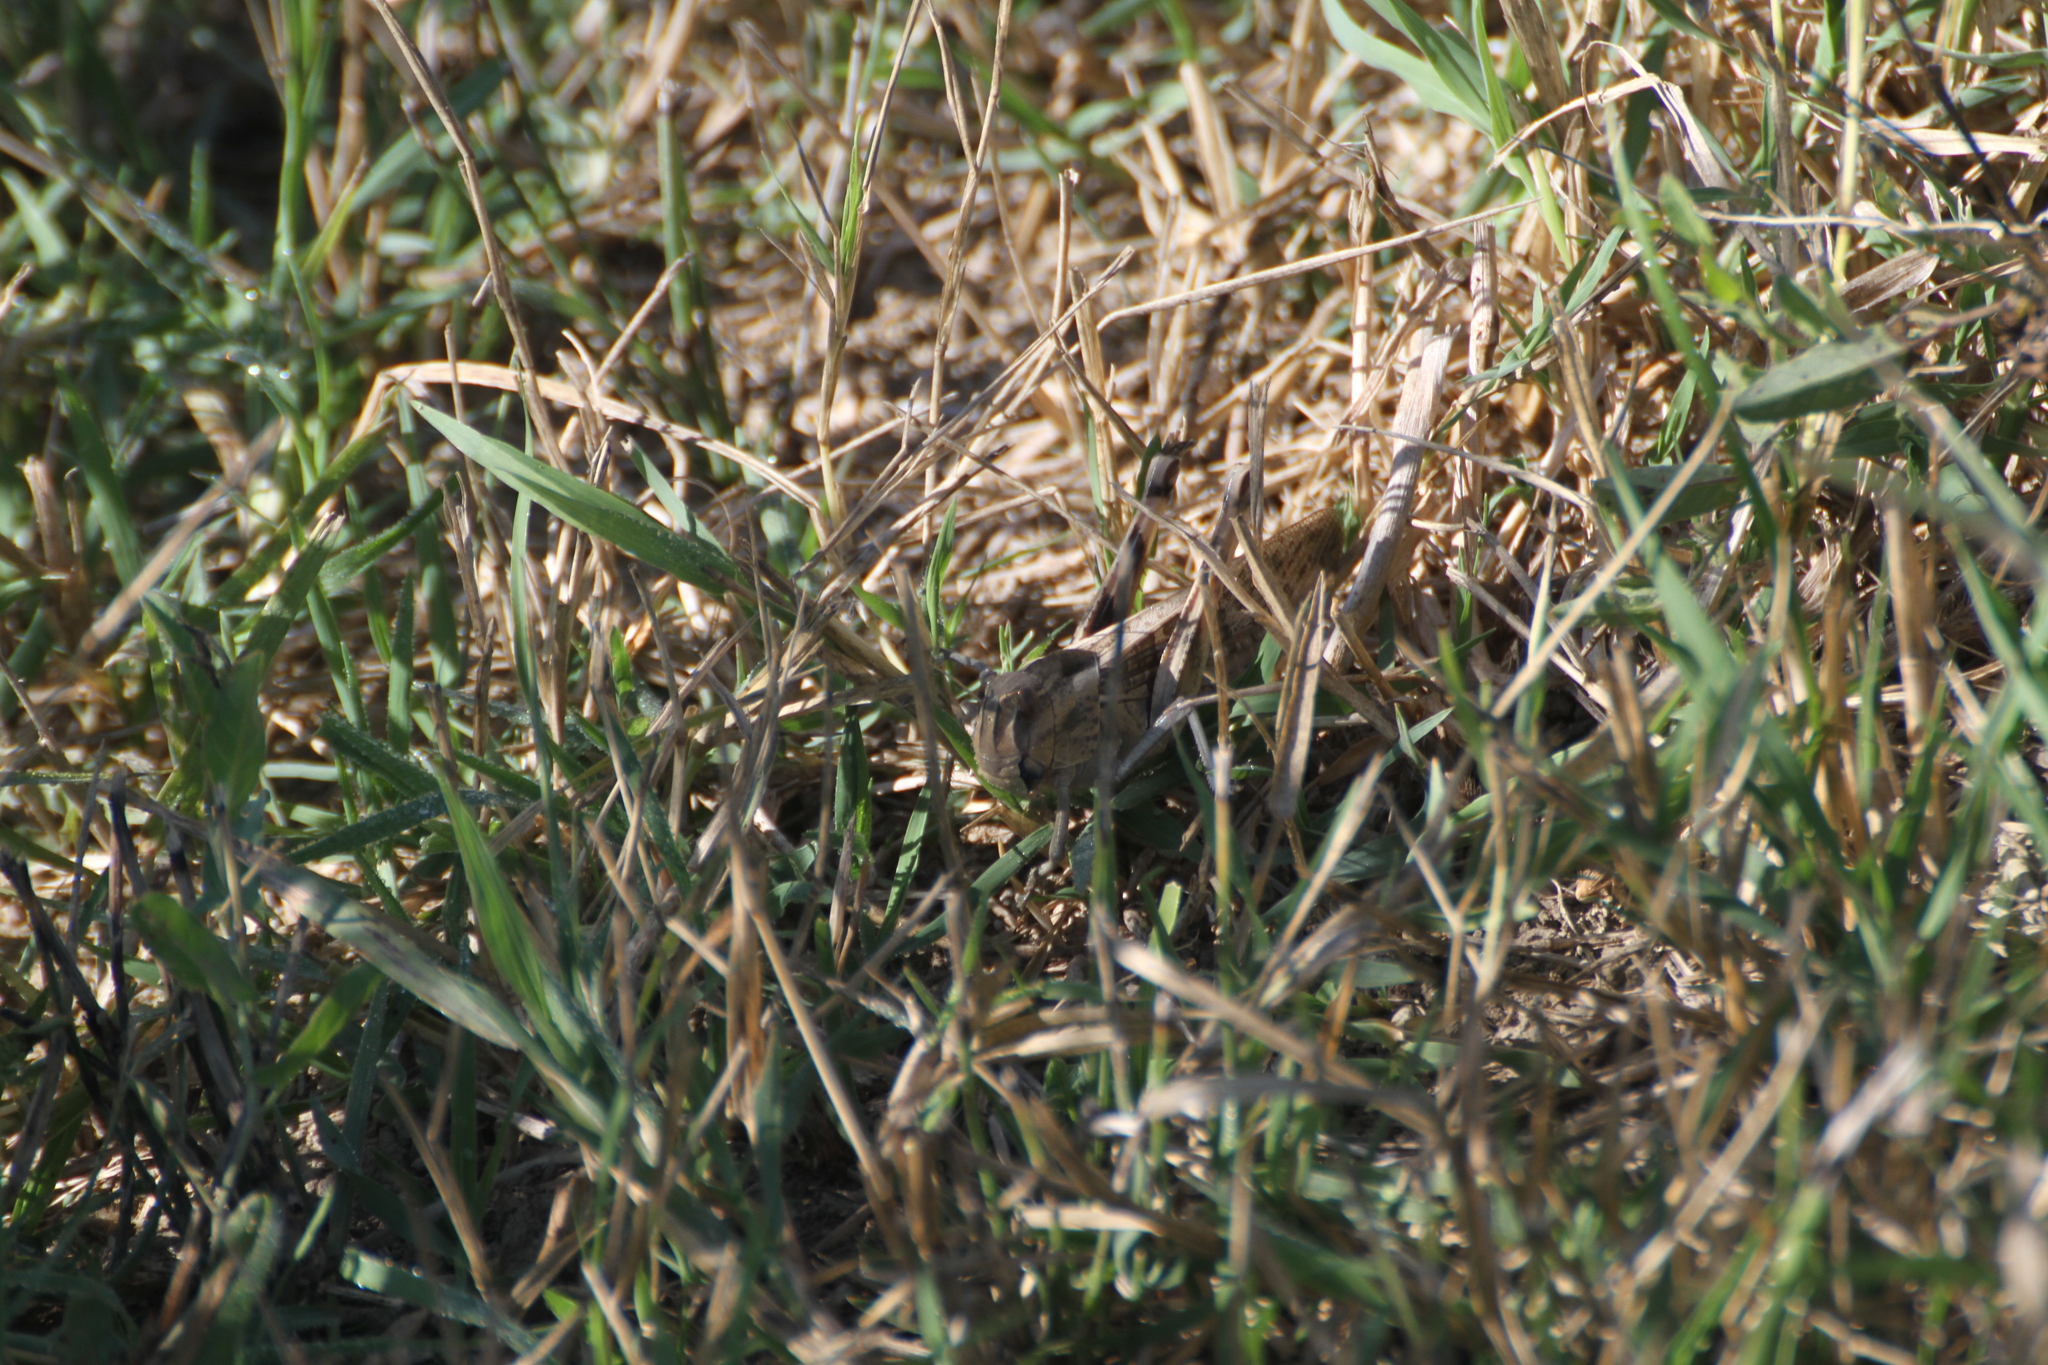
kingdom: Animalia
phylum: Arthropoda
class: Insecta
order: Orthoptera
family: Acrididae
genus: Locusta
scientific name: Locusta migratoria
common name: Migratory locust
